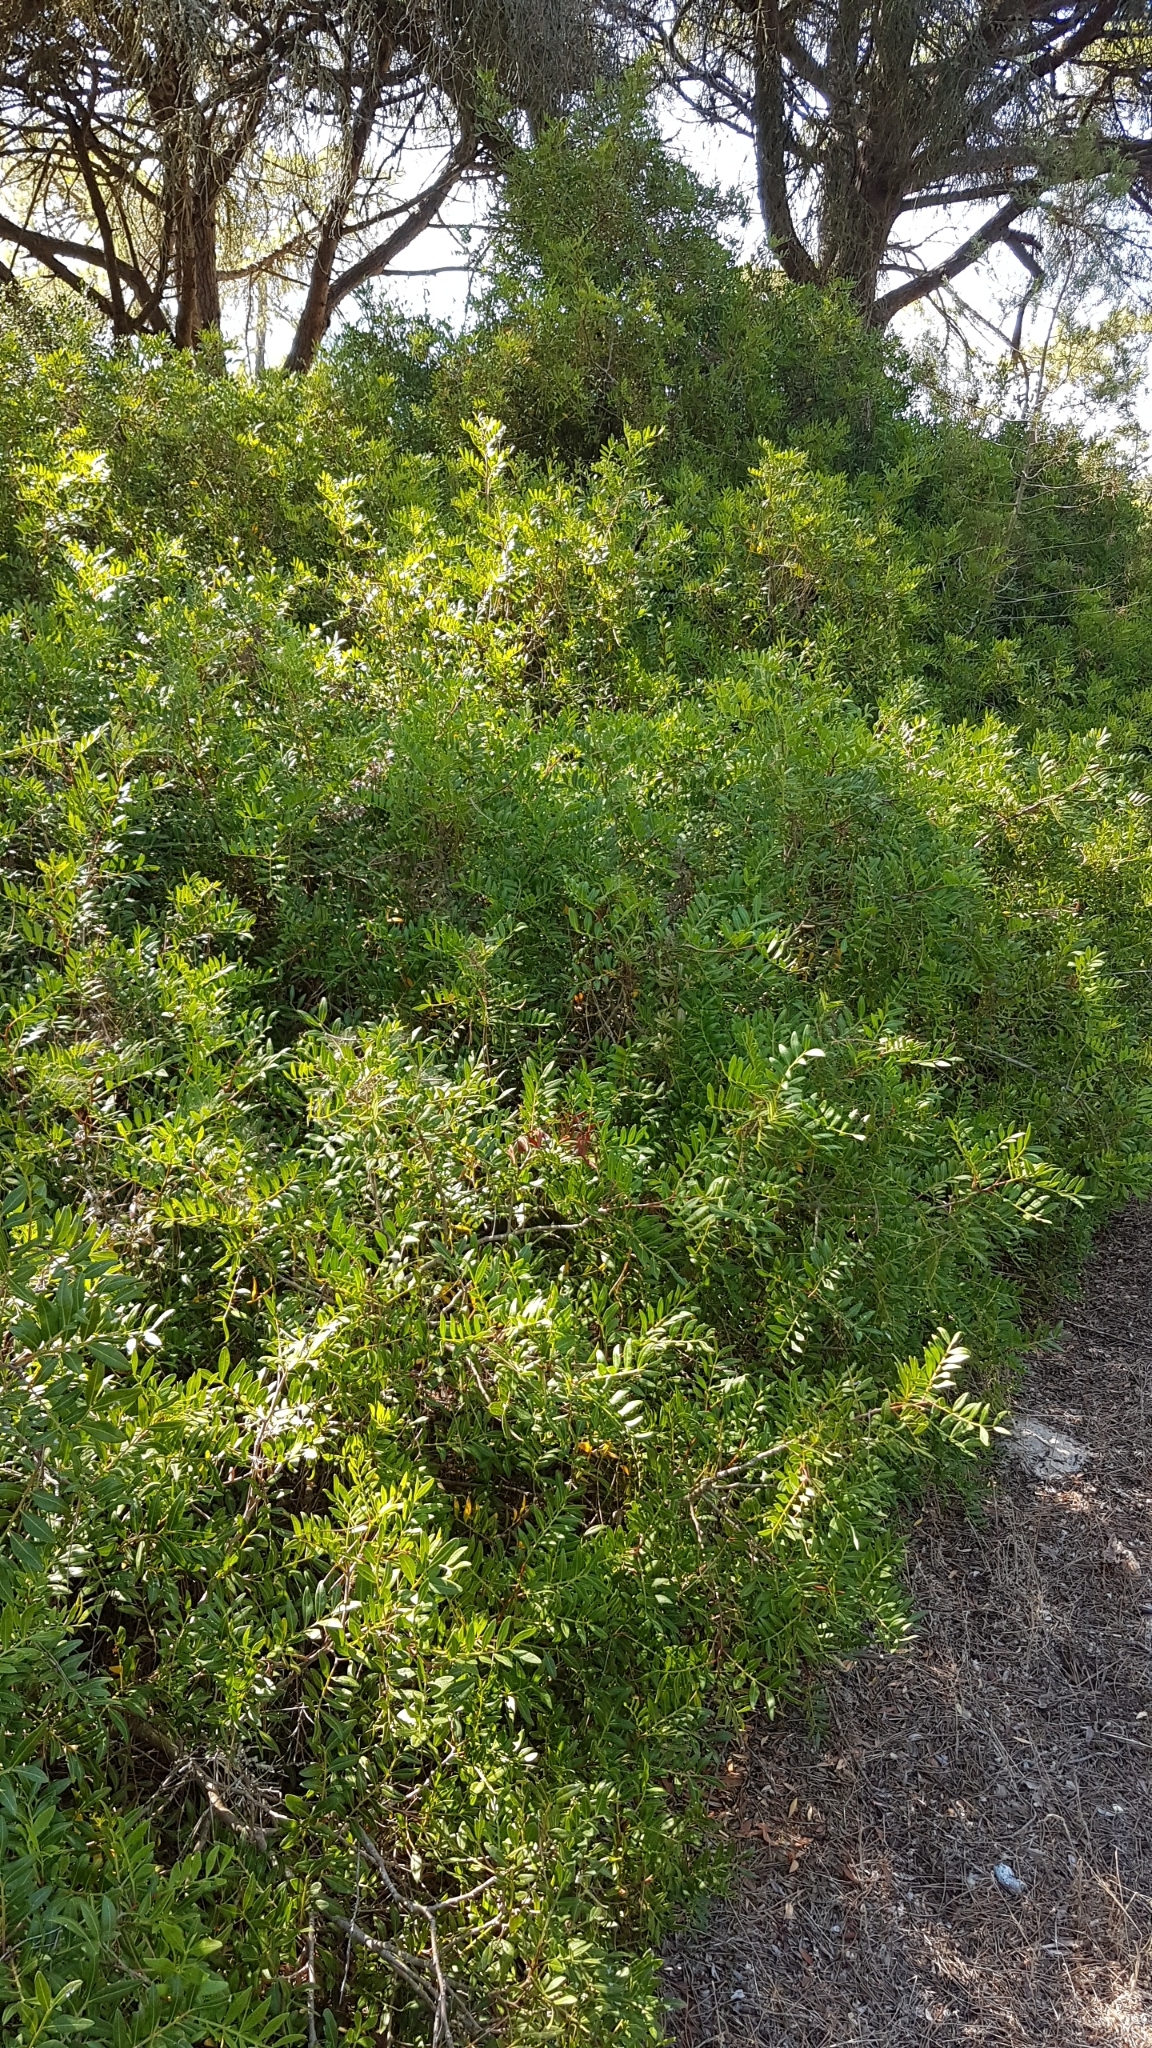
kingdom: Plantae
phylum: Tracheophyta
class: Magnoliopsida
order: Sapindales
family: Anacardiaceae
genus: Pistacia
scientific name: Pistacia lentiscus
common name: Lentisk
